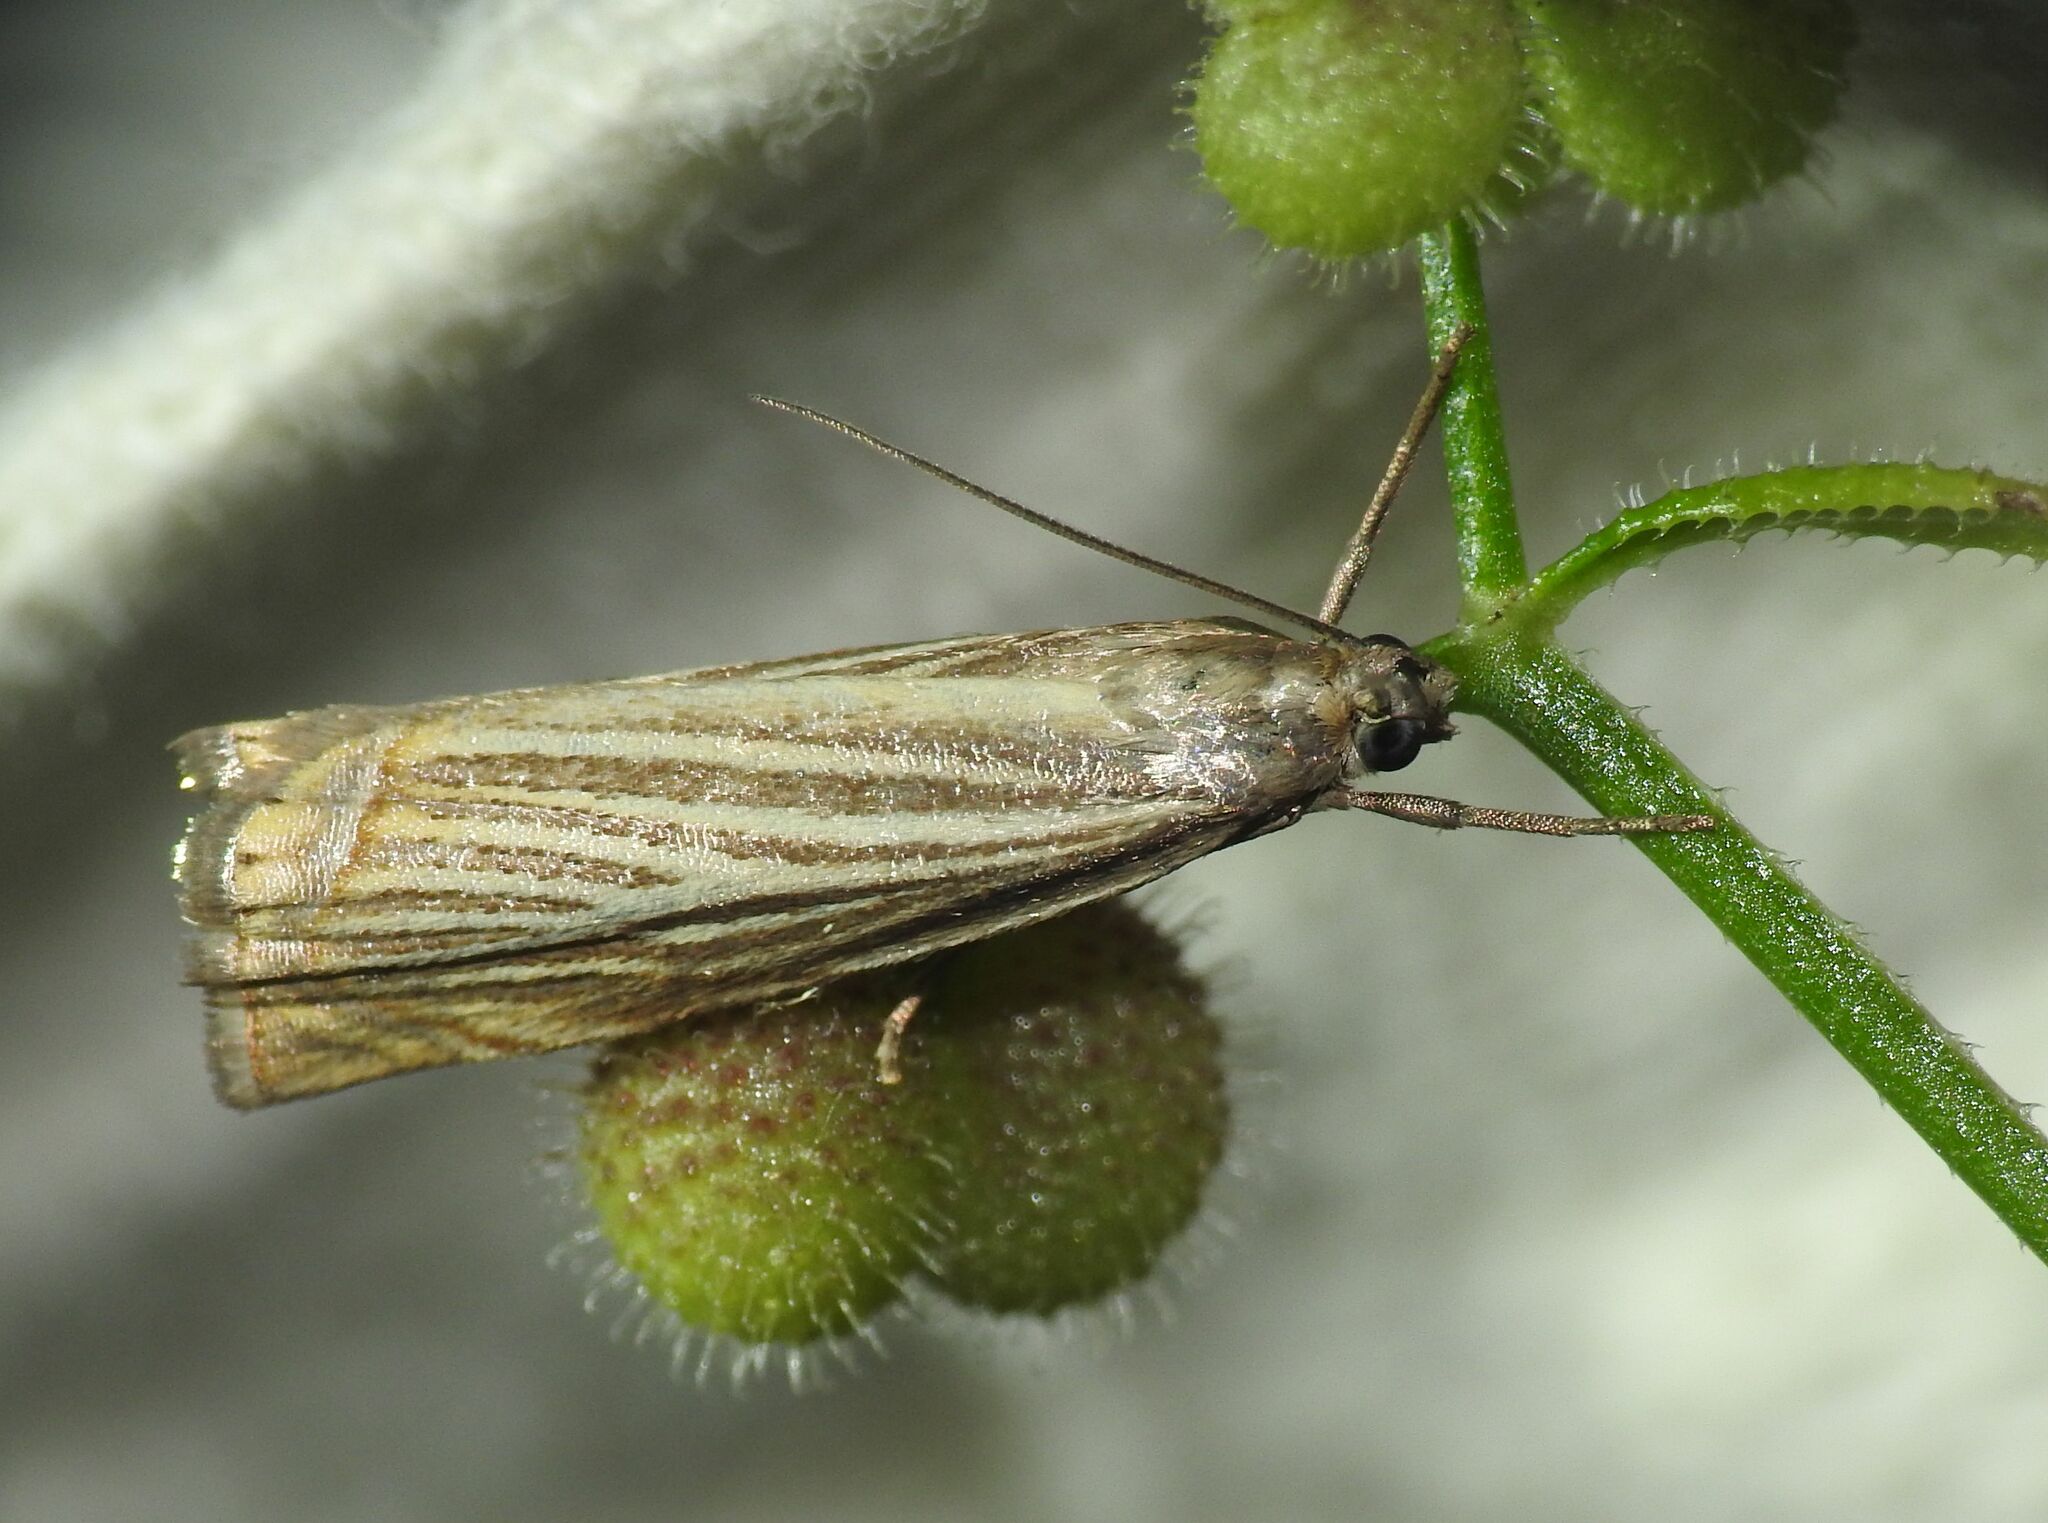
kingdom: Animalia
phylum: Arthropoda
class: Insecta
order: Lepidoptera
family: Crambidae
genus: Chrysoteuchia
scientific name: Chrysoteuchia culmella
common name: Garden grass-veneer
